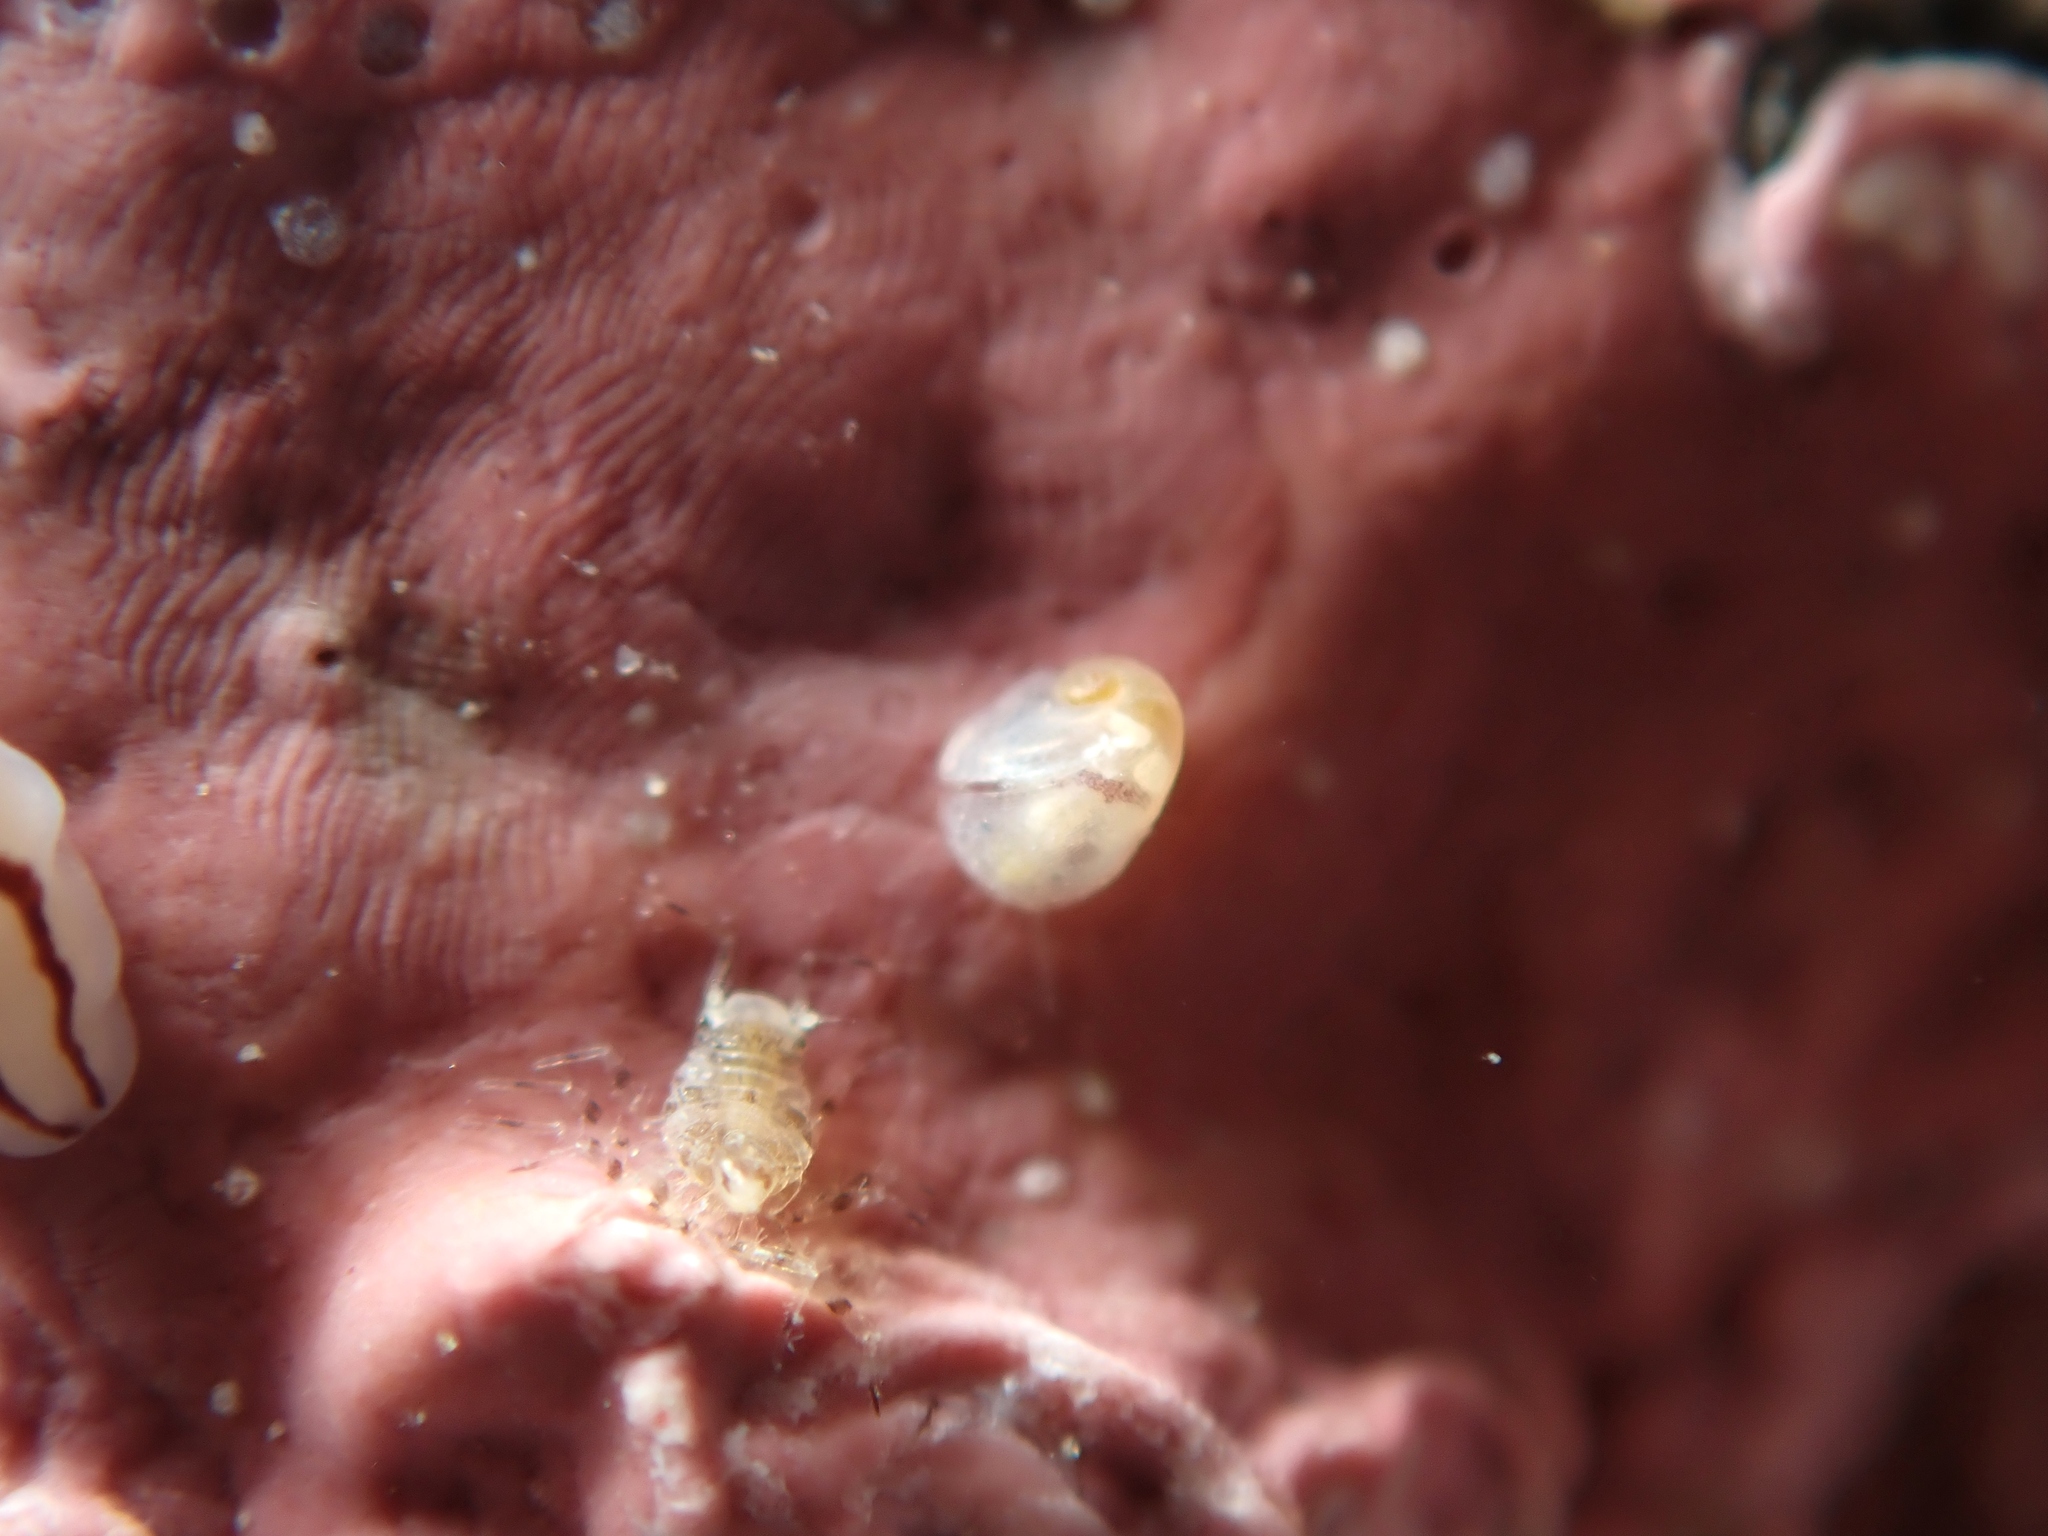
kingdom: Animalia
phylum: Mollusca
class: Gastropoda
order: Lepetellida
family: Scissurellidae
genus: Incisura
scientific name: Incisura rosea
